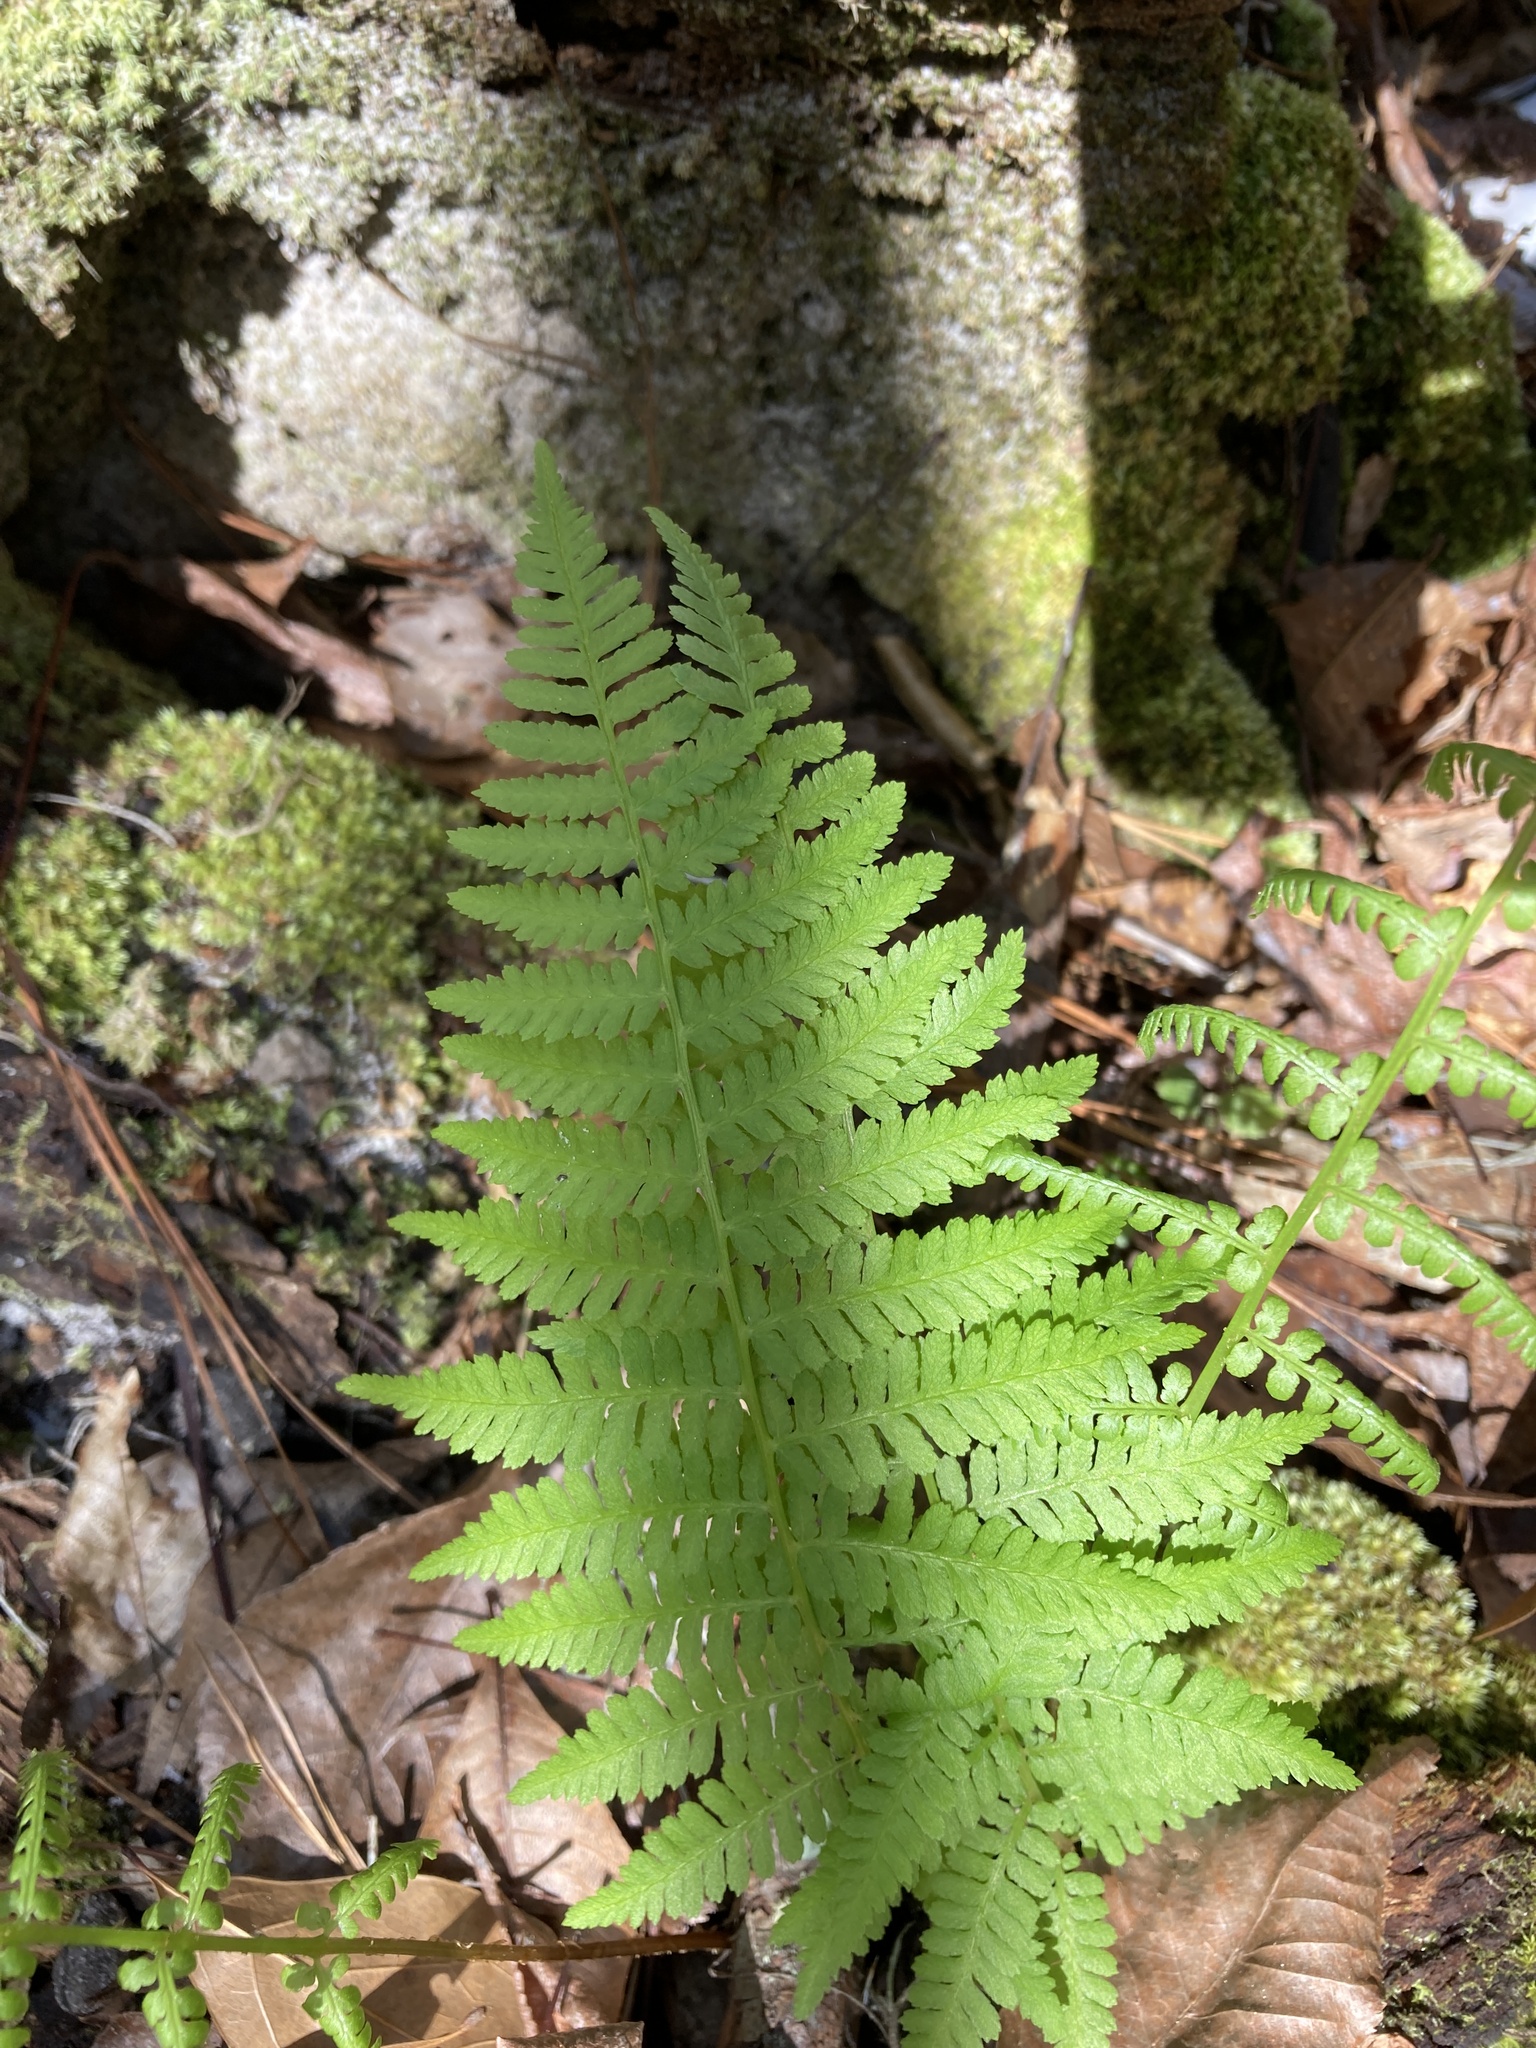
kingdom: Plantae
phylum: Tracheophyta
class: Polypodiopsida
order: Polypodiales
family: Athyriaceae
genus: Athyrium
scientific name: Athyrium asplenioides
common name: Southern lady fern
